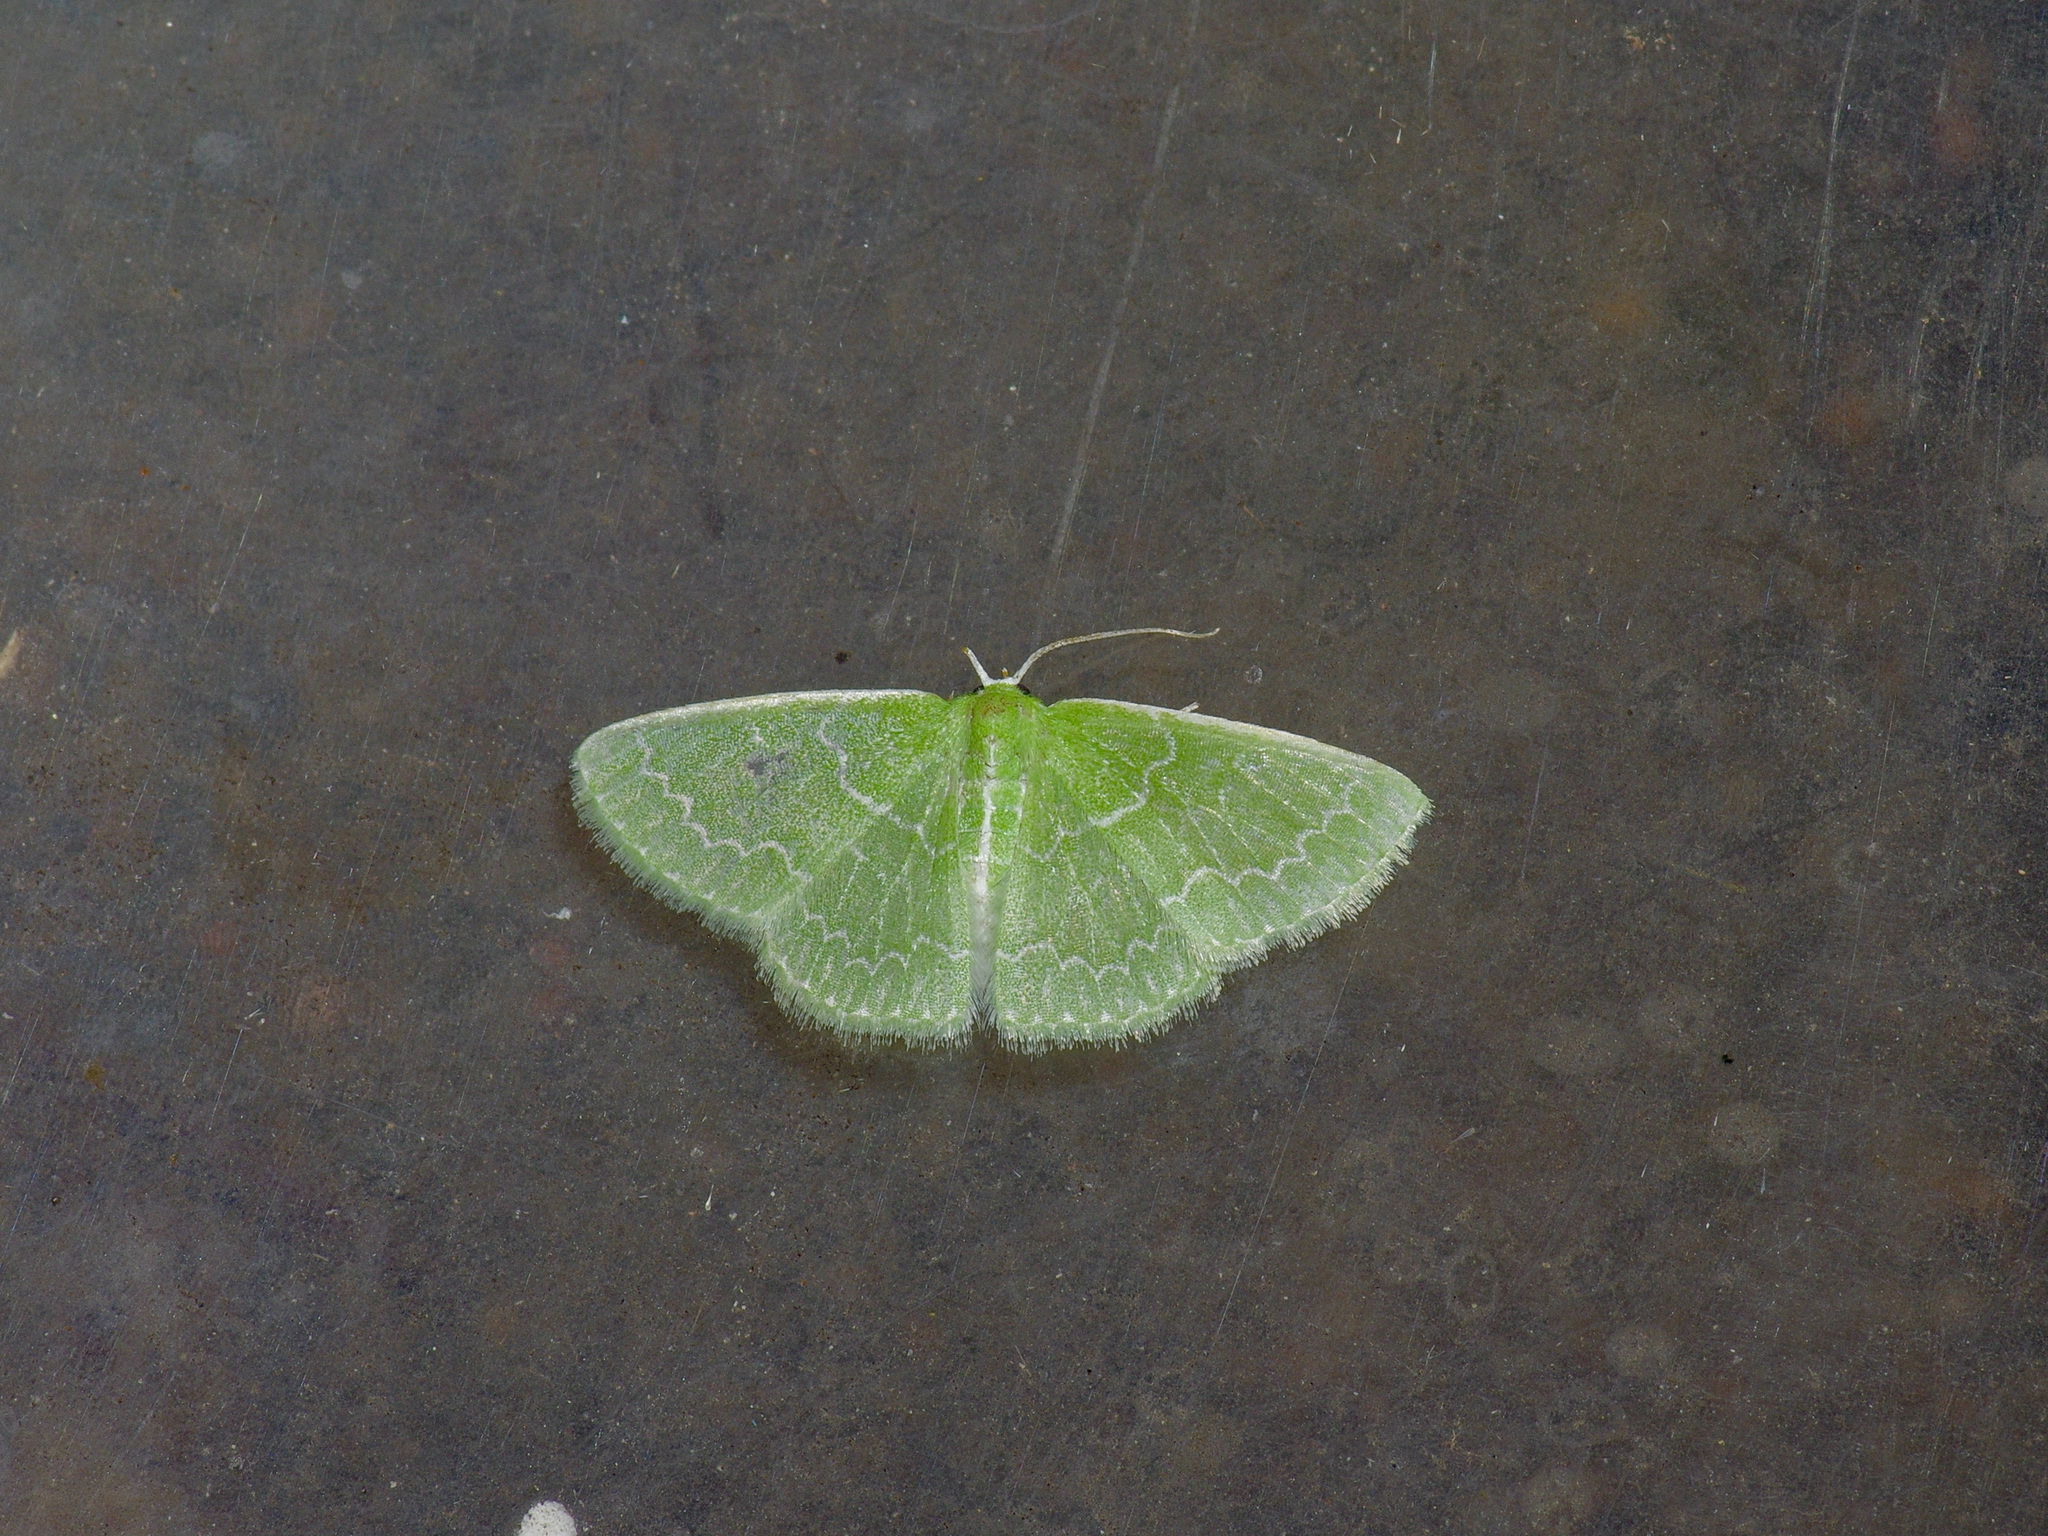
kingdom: Animalia
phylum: Arthropoda
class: Insecta
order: Lepidoptera
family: Geometridae
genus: Synchlora
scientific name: Synchlora frondaria
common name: Southern emerald
